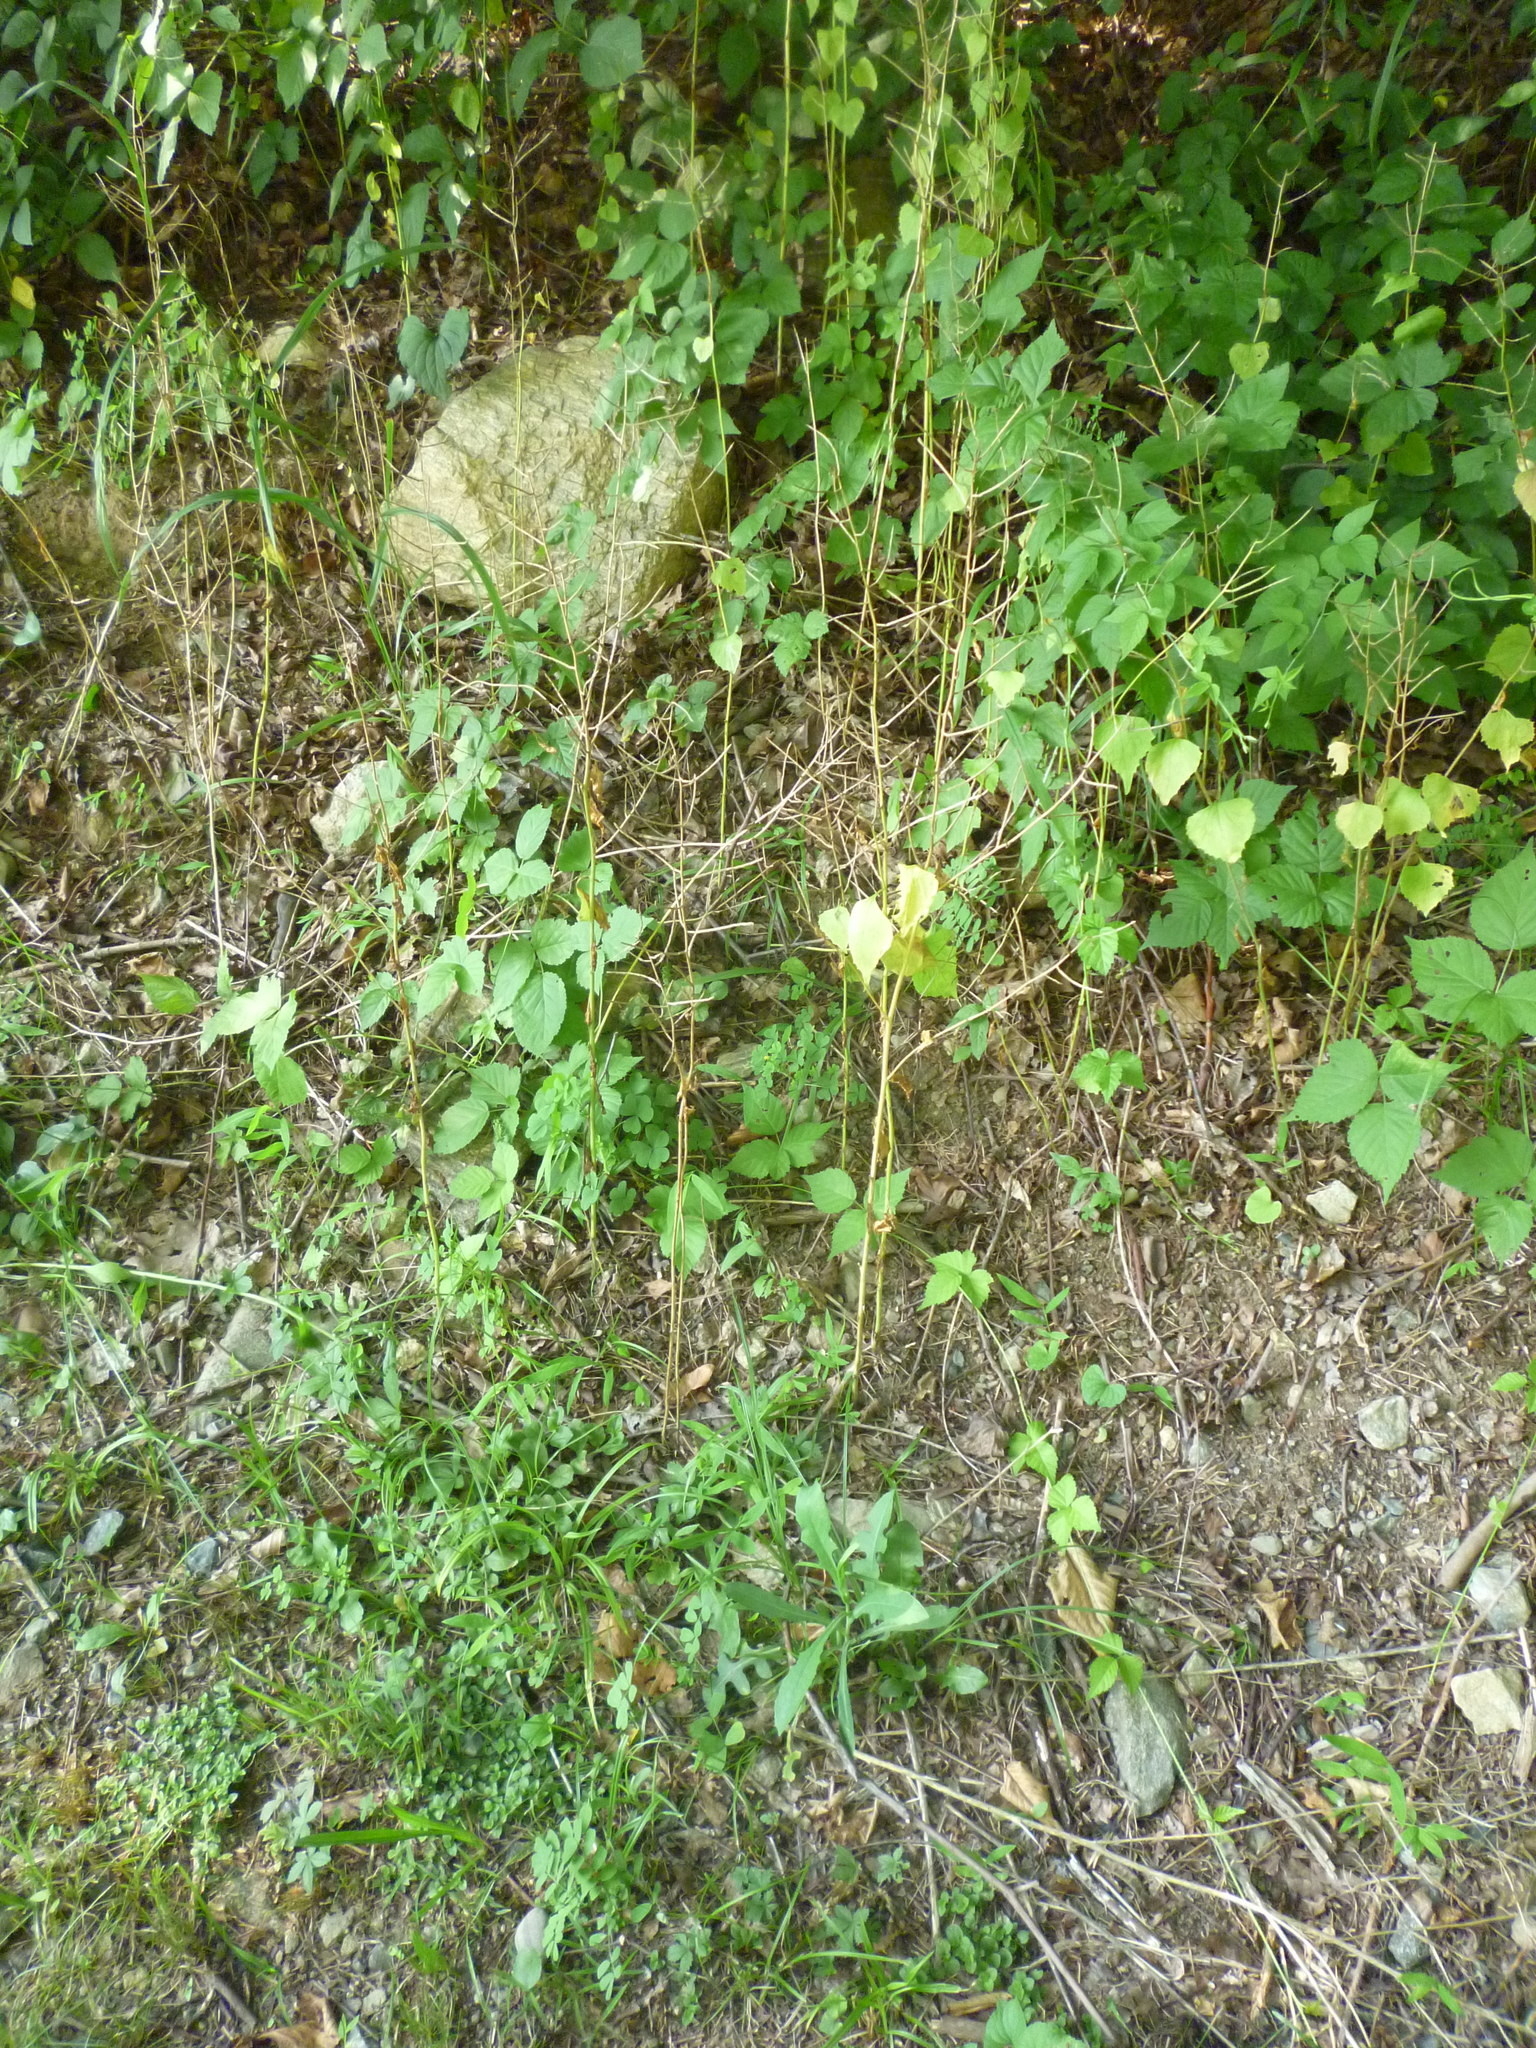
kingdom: Plantae
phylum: Tracheophyta
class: Magnoliopsida
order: Brassicales
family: Brassicaceae
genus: Alliaria
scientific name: Alliaria petiolata
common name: Garlic mustard
